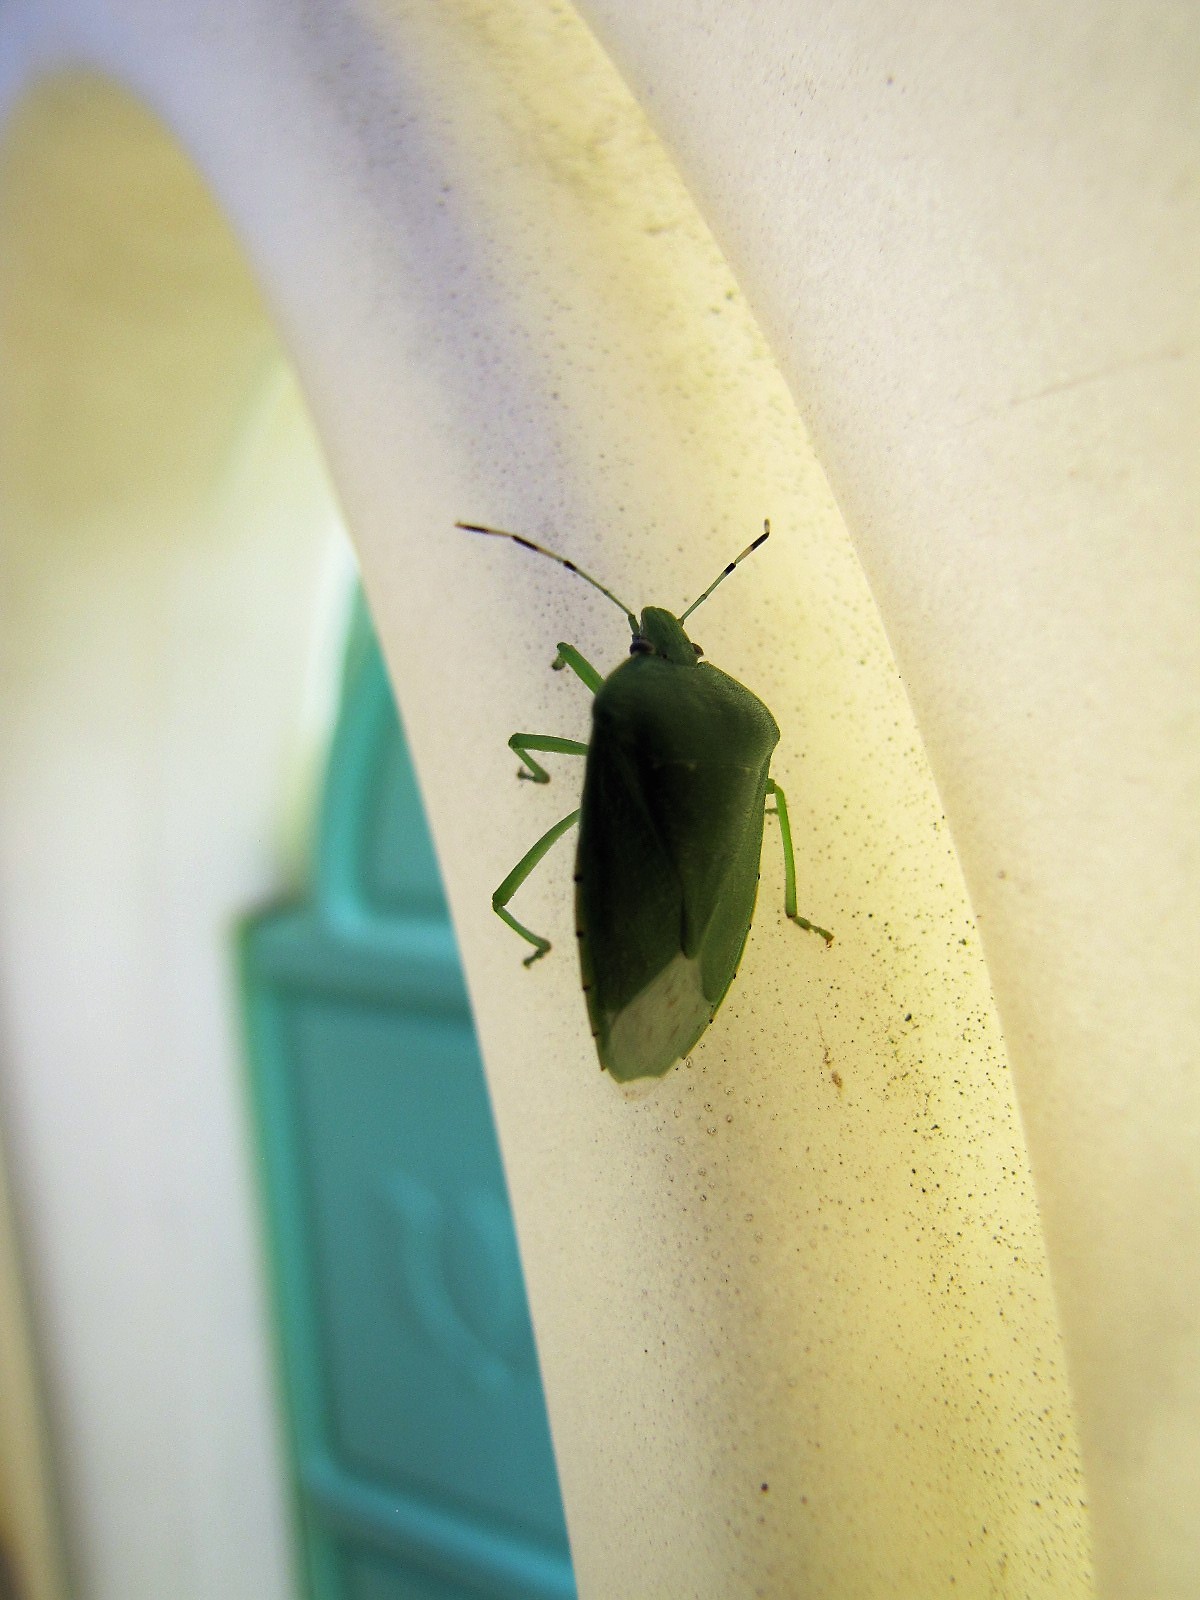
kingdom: Animalia
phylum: Arthropoda
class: Insecta
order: Hemiptera
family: Pentatomidae
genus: Chinavia
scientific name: Chinavia hilaris
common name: Green stink bug
